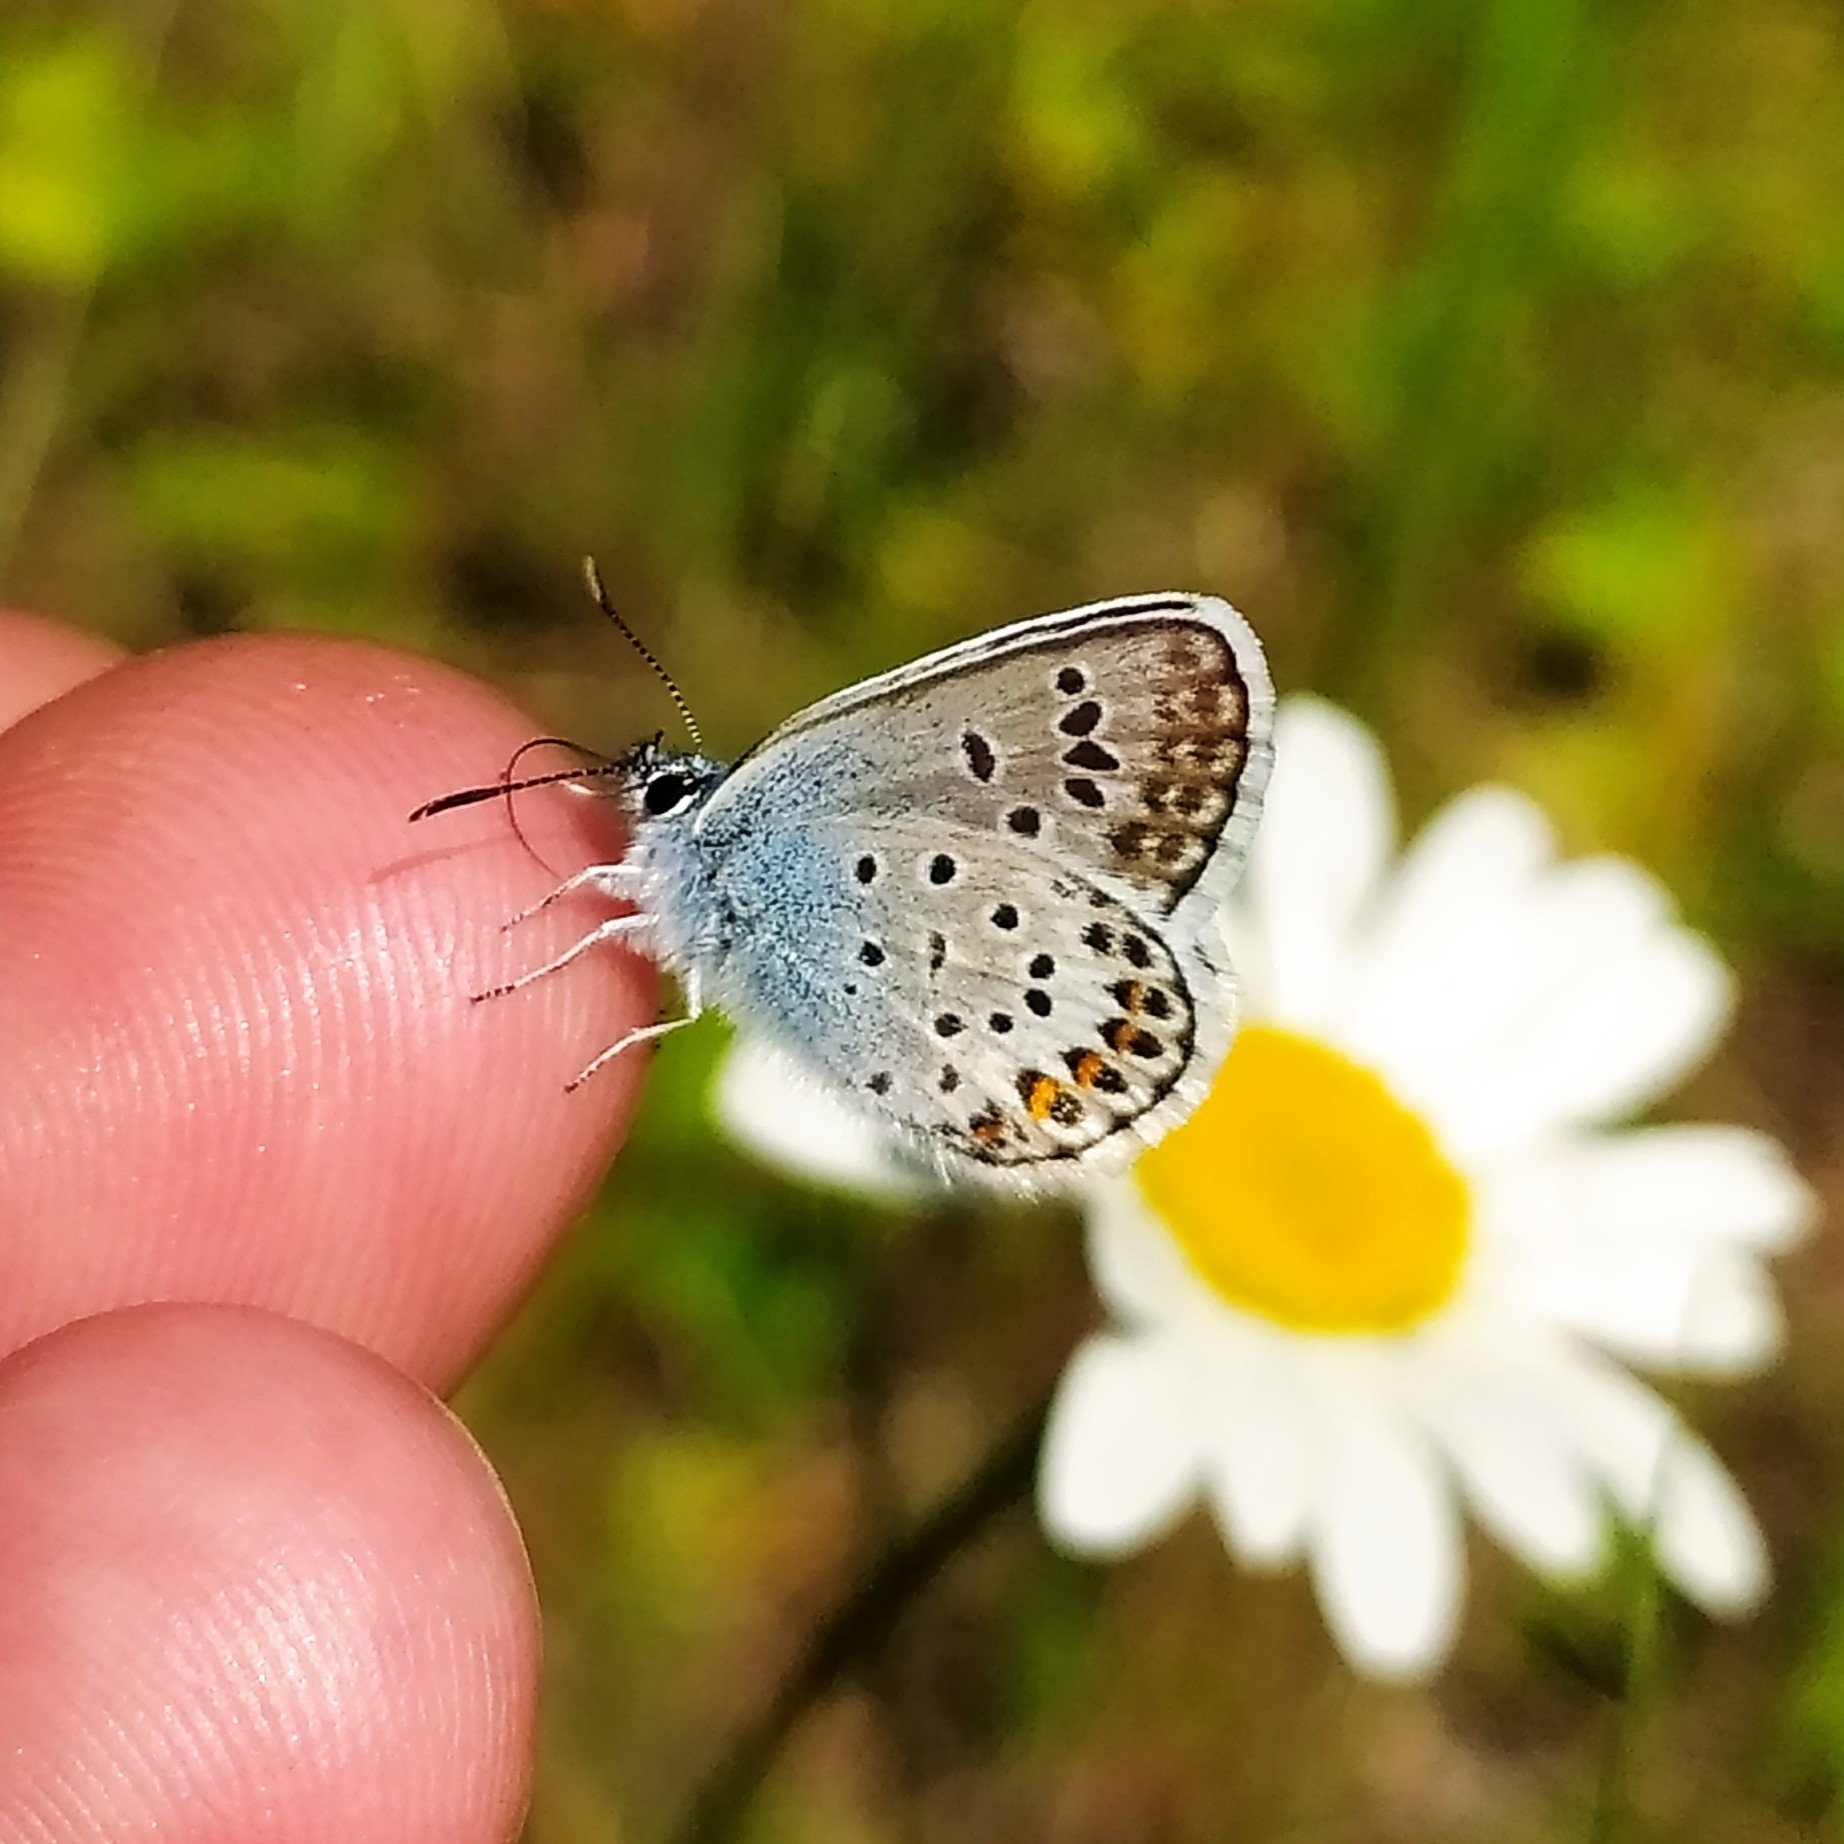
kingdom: Animalia
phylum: Arthropoda
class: Insecta
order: Lepidoptera
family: Lycaenidae
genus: Plebejus
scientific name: Plebejus argus
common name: Silver-studded blue
